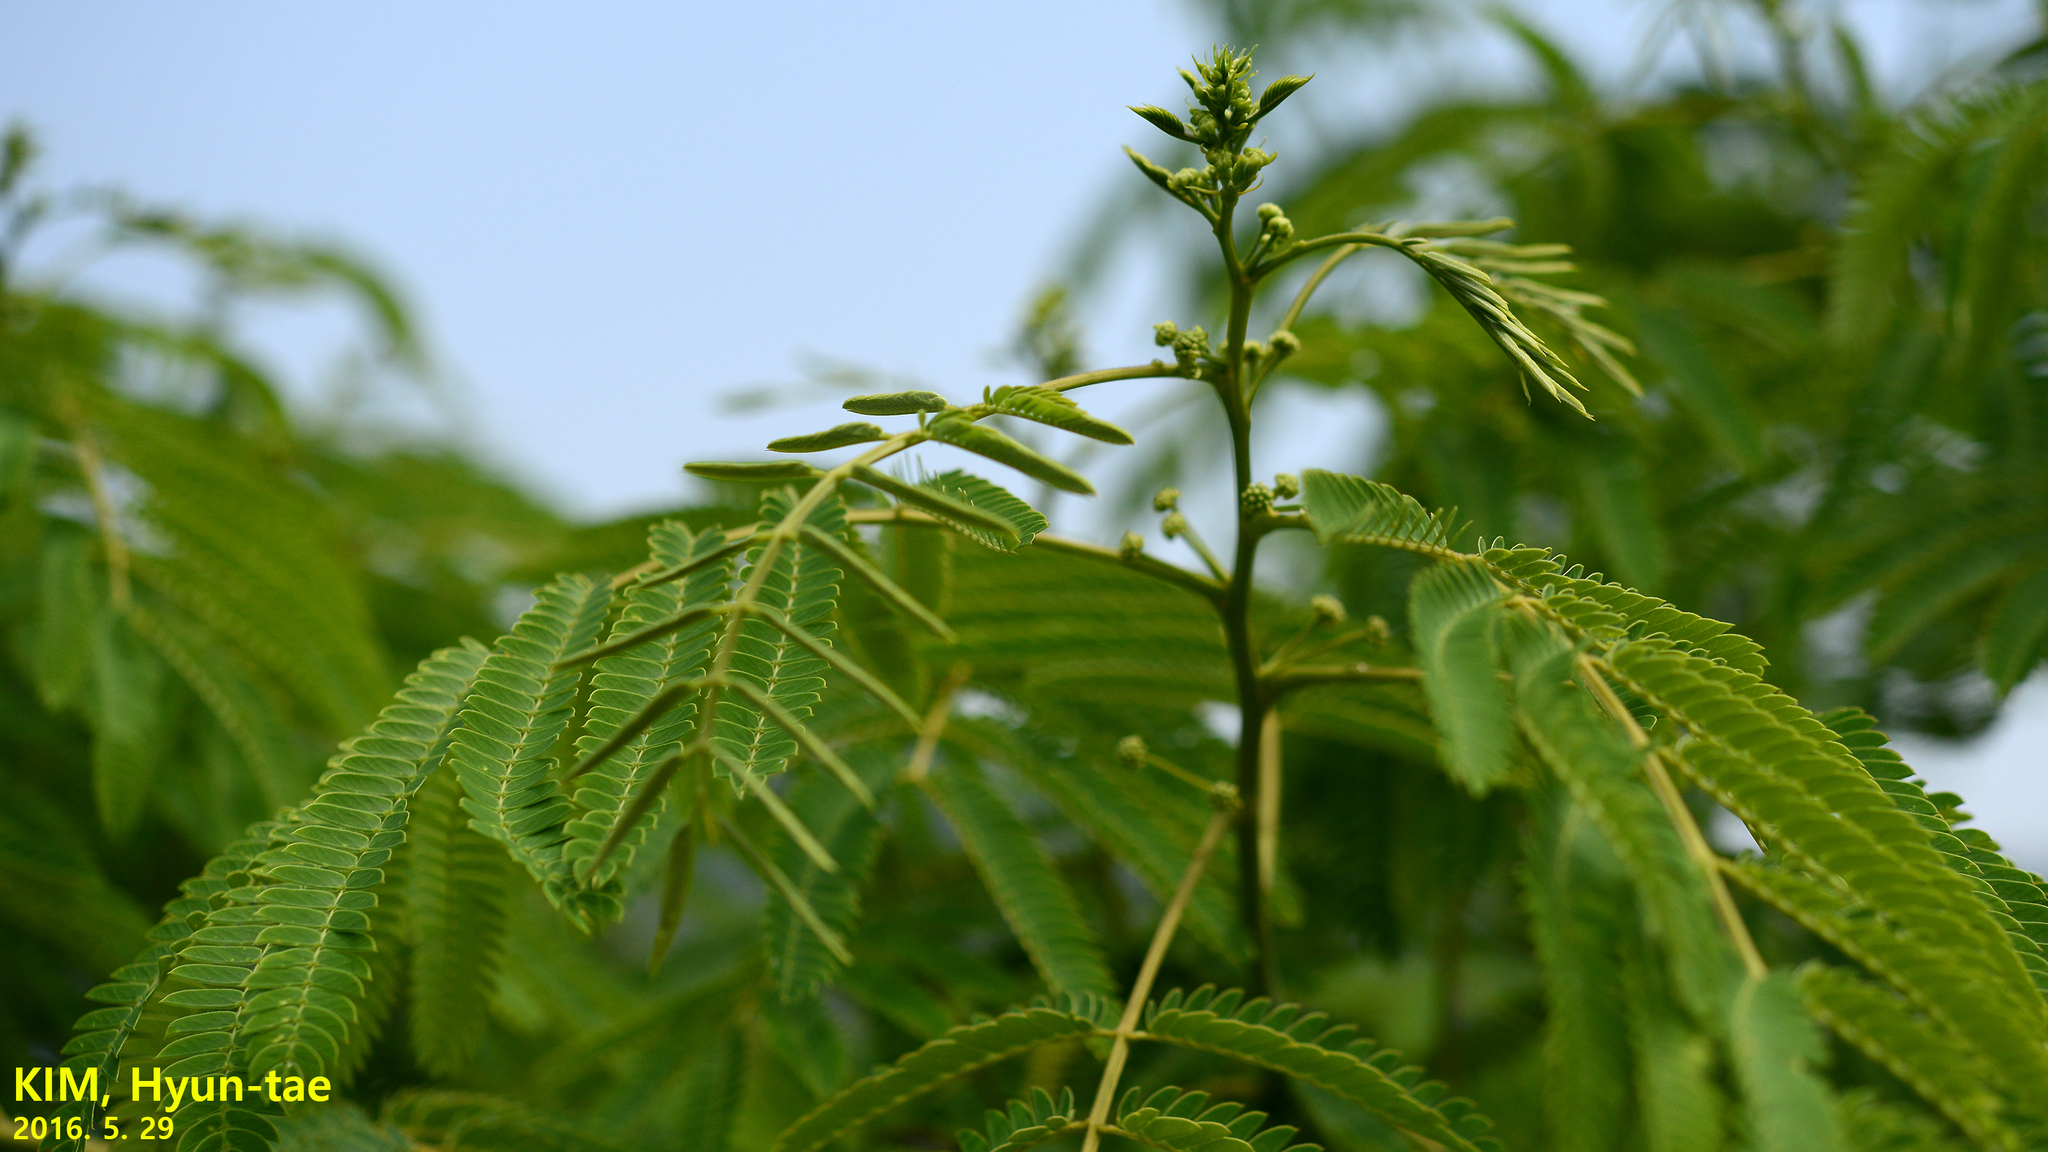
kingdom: Plantae
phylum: Tracheophyta
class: Magnoliopsida
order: Fabales
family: Fabaceae
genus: Albizia
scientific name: Albizia julibrissin
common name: Silktree
